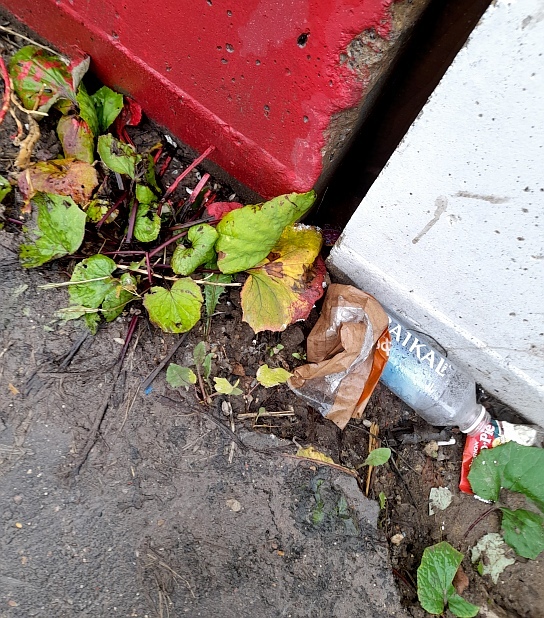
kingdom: Plantae
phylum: Tracheophyta
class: Magnoliopsida
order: Asterales
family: Asteraceae
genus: Tussilago
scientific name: Tussilago farfara
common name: Coltsfoot
